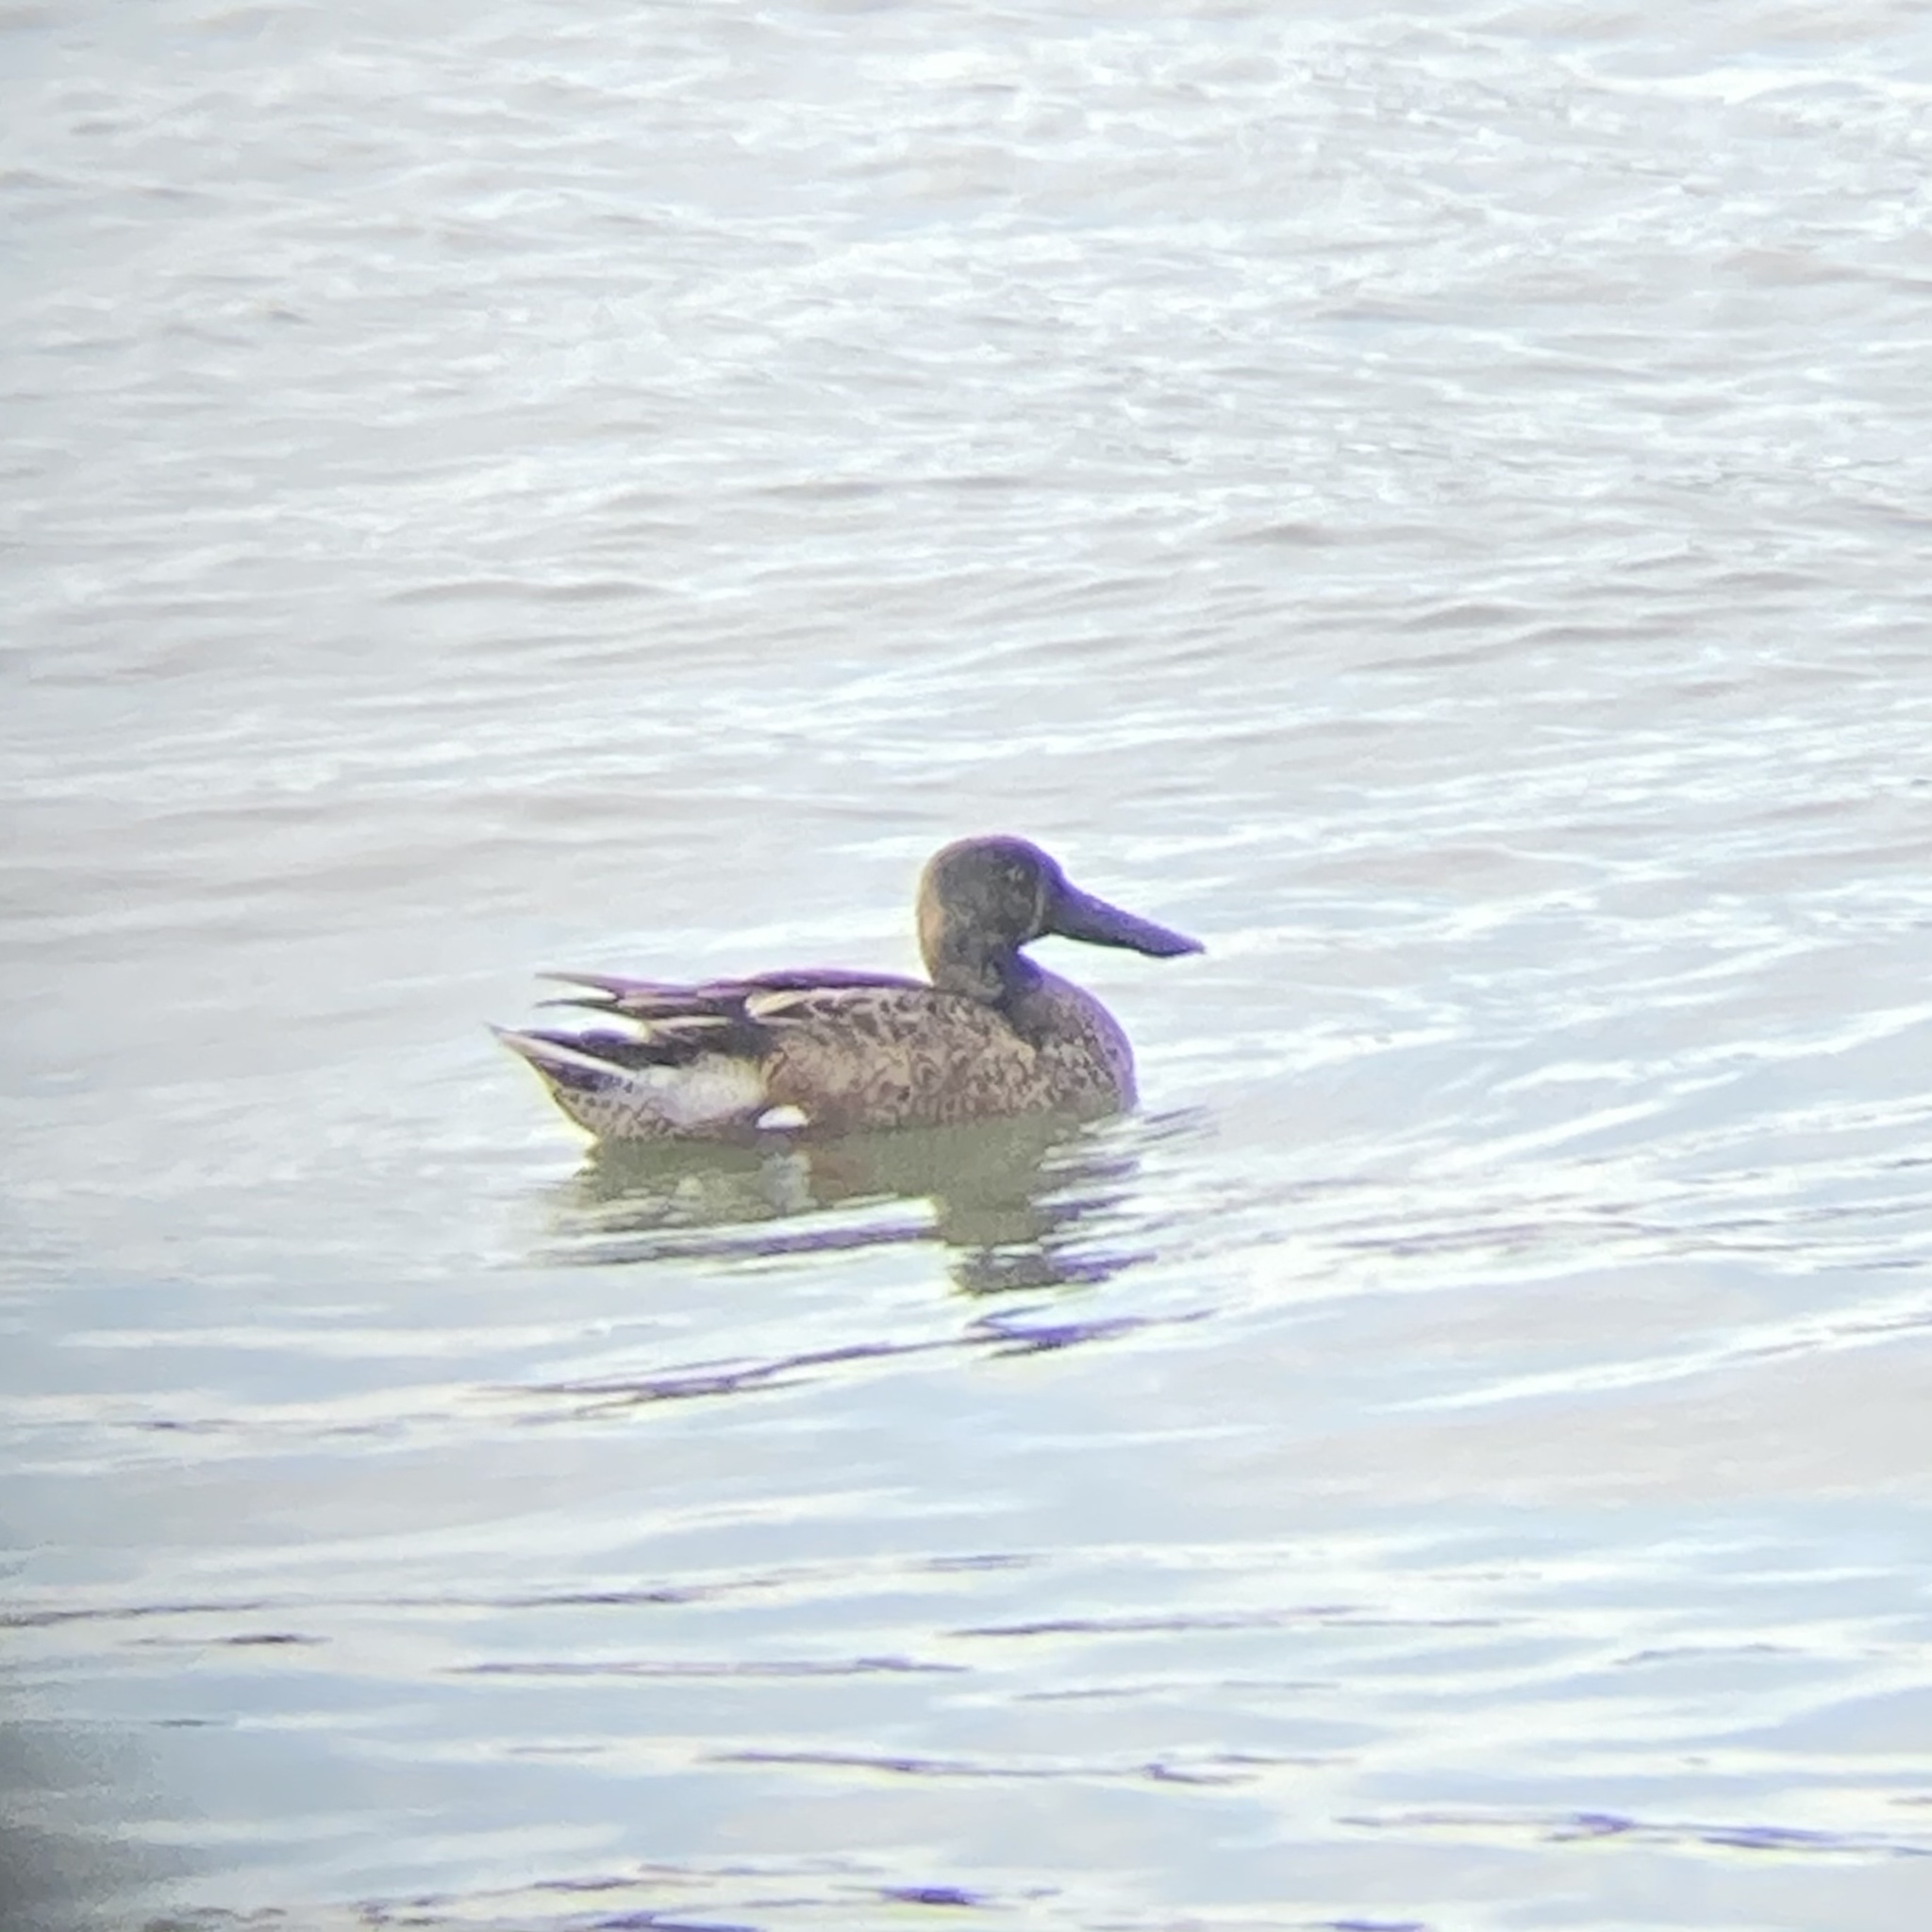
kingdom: Animalia
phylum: Chordata
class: Aves
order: Anseriformes
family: Anatidae
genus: Spatula
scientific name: Spatula clypeata
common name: Northern shoveler
